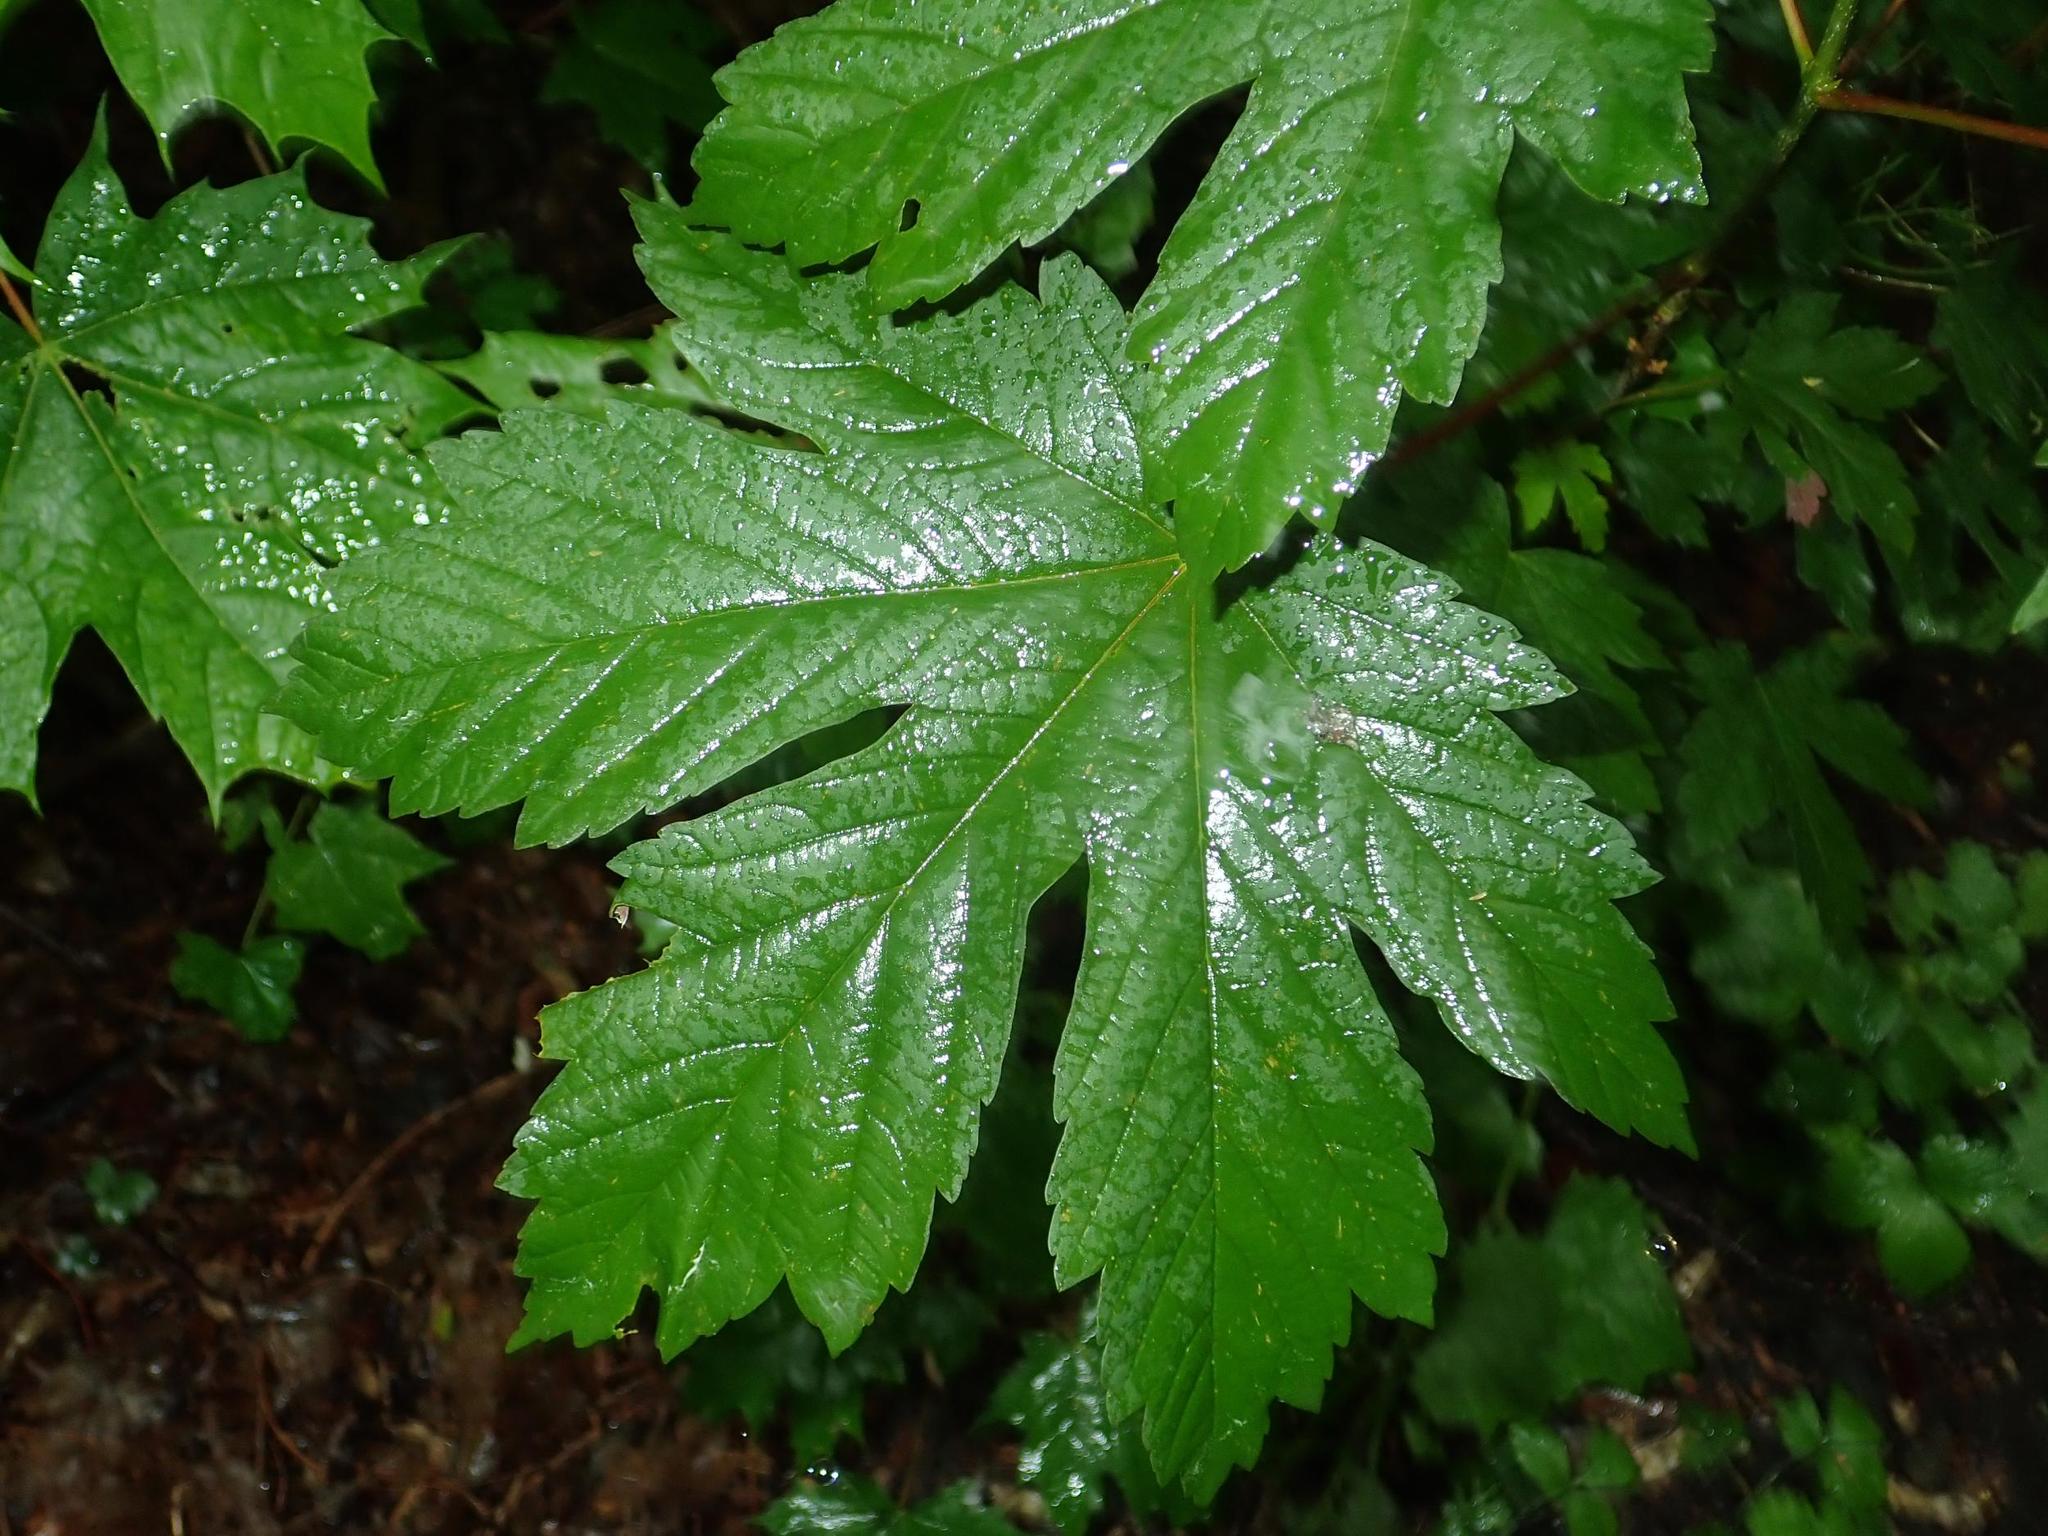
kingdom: Plantae
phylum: Tracheophyta
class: Magnoliopsida
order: Rosales
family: Cannabaceae
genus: Humulus
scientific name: Humulus lupulus
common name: Hop
